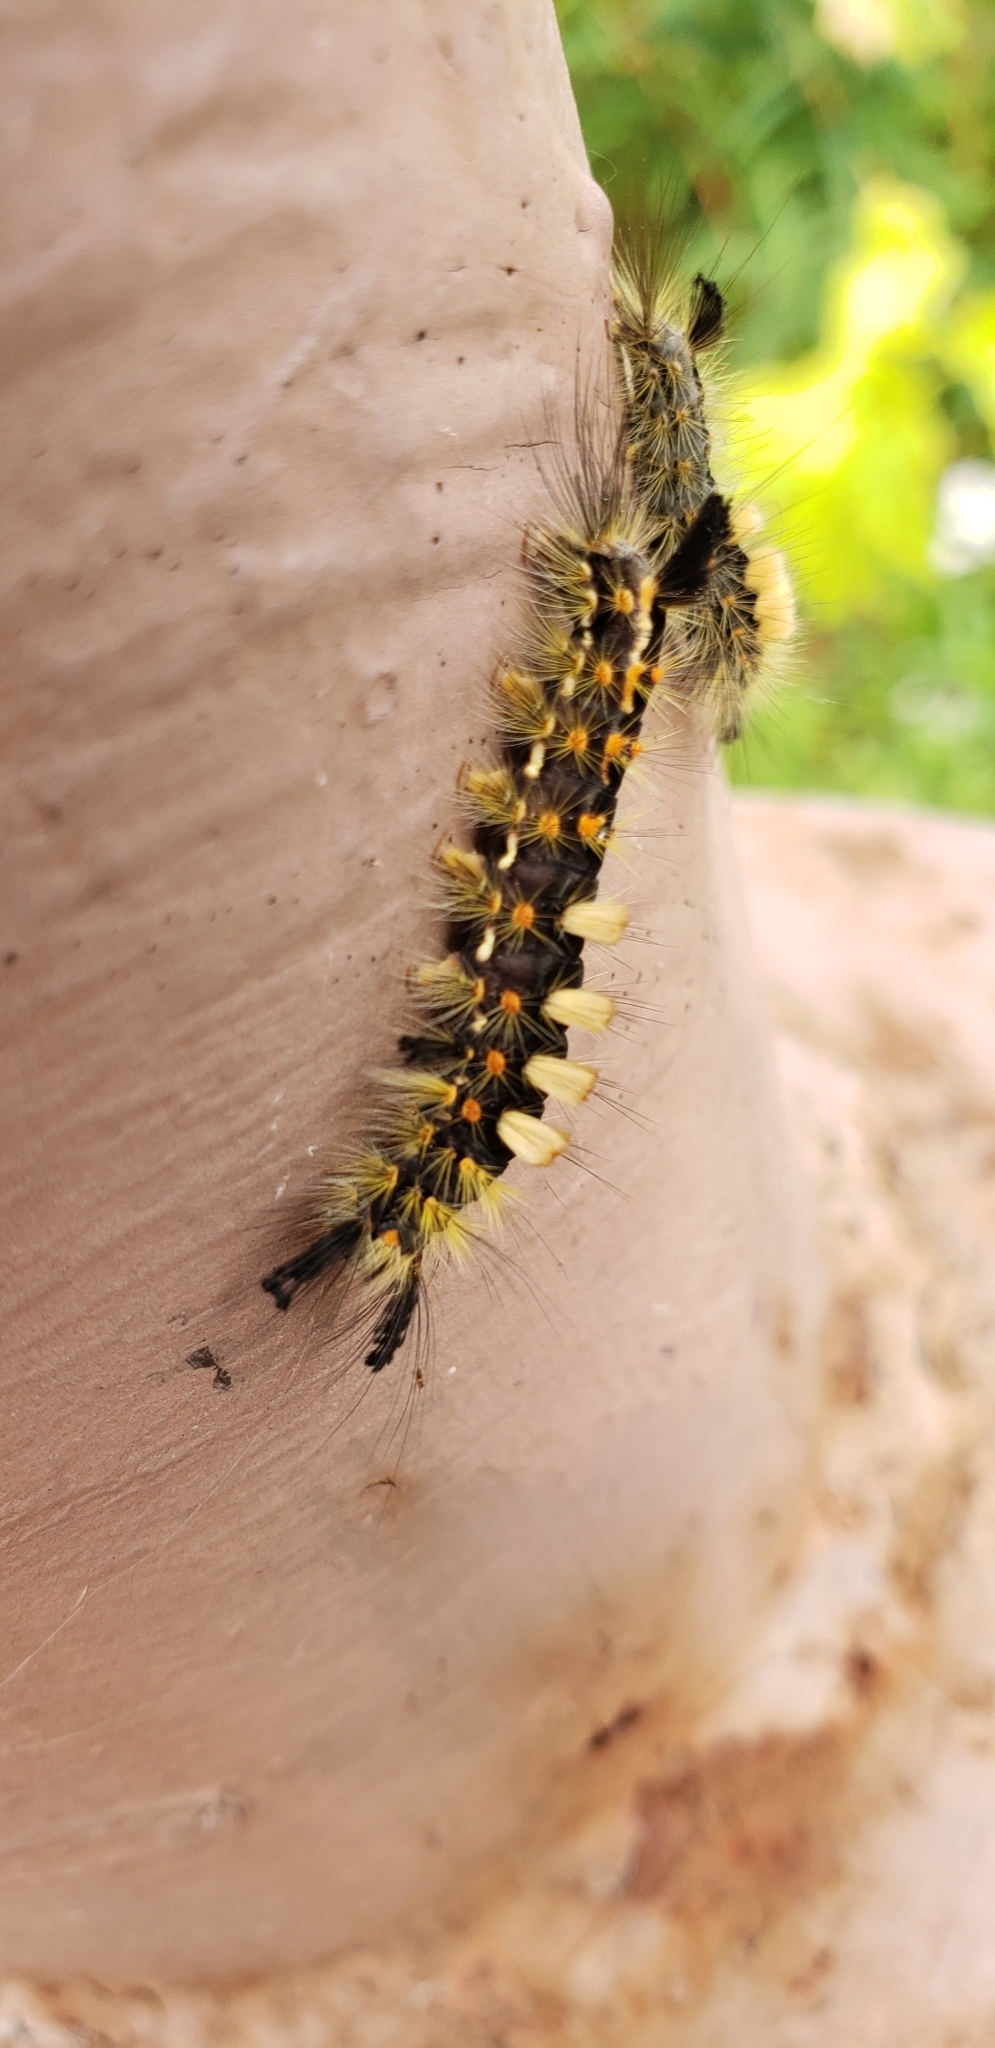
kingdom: Animalia
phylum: Arthropoda
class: Insecta
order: Lepidoptera
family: Erebidae
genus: Orgyia
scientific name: Orgyia antiqua
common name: Vapourer
